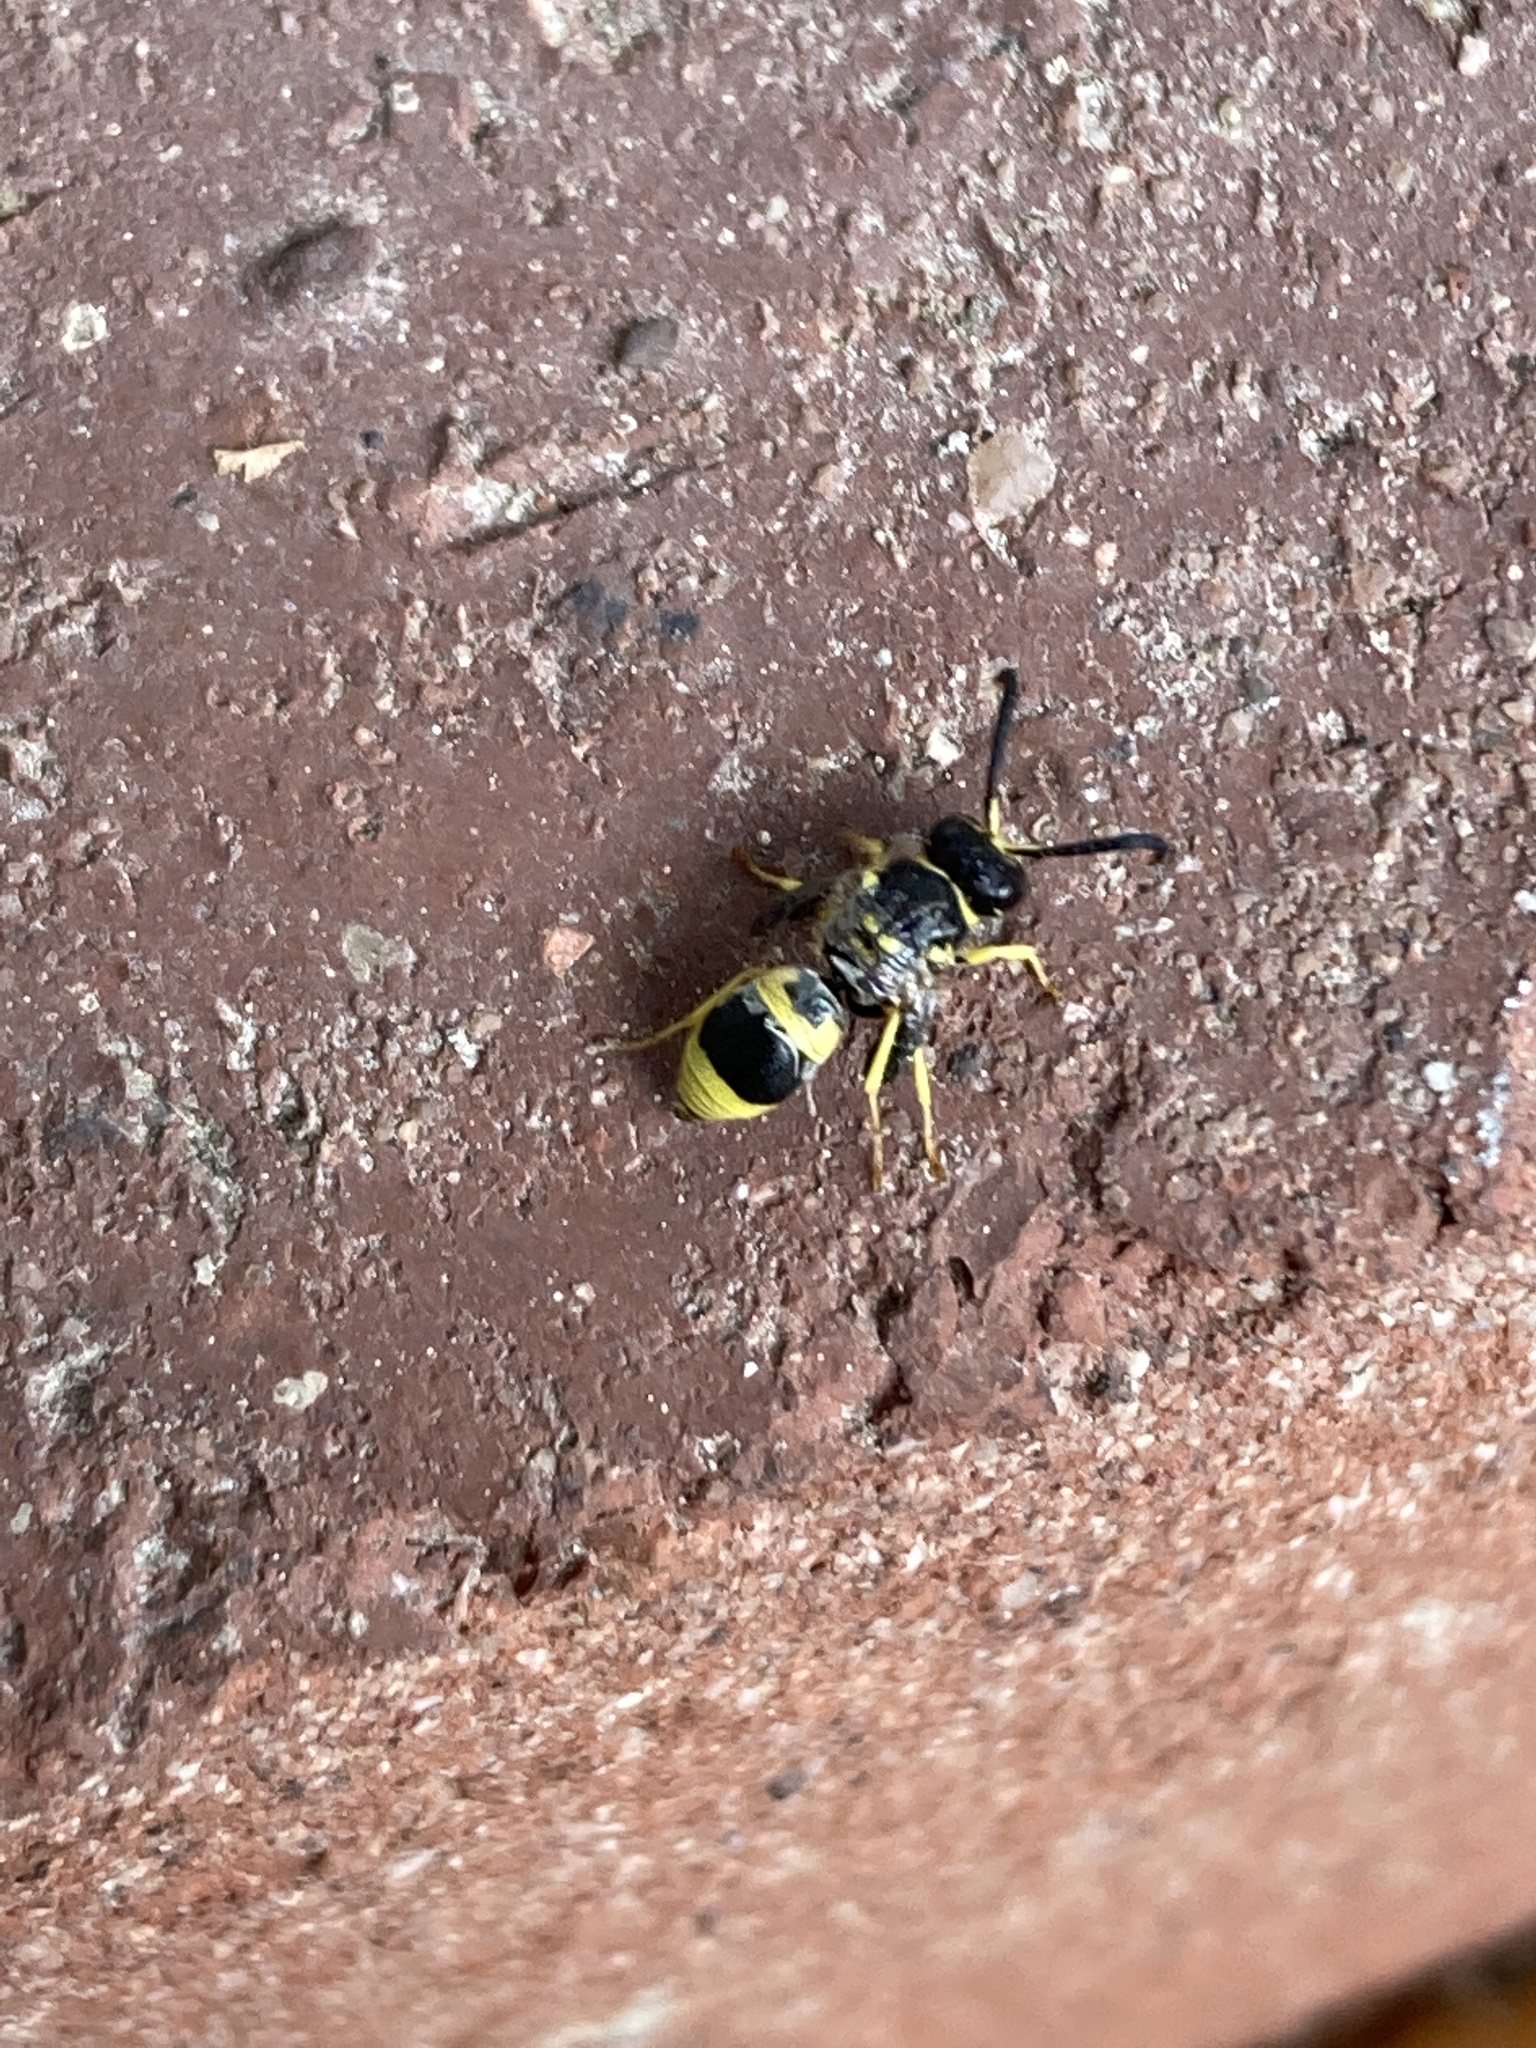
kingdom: Animalia
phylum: Arthropoda
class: Insecta
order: Hymenoptera
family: Vespidae
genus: Ancistrocerus
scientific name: Ancistrocerus gazella
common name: European tube wasp
